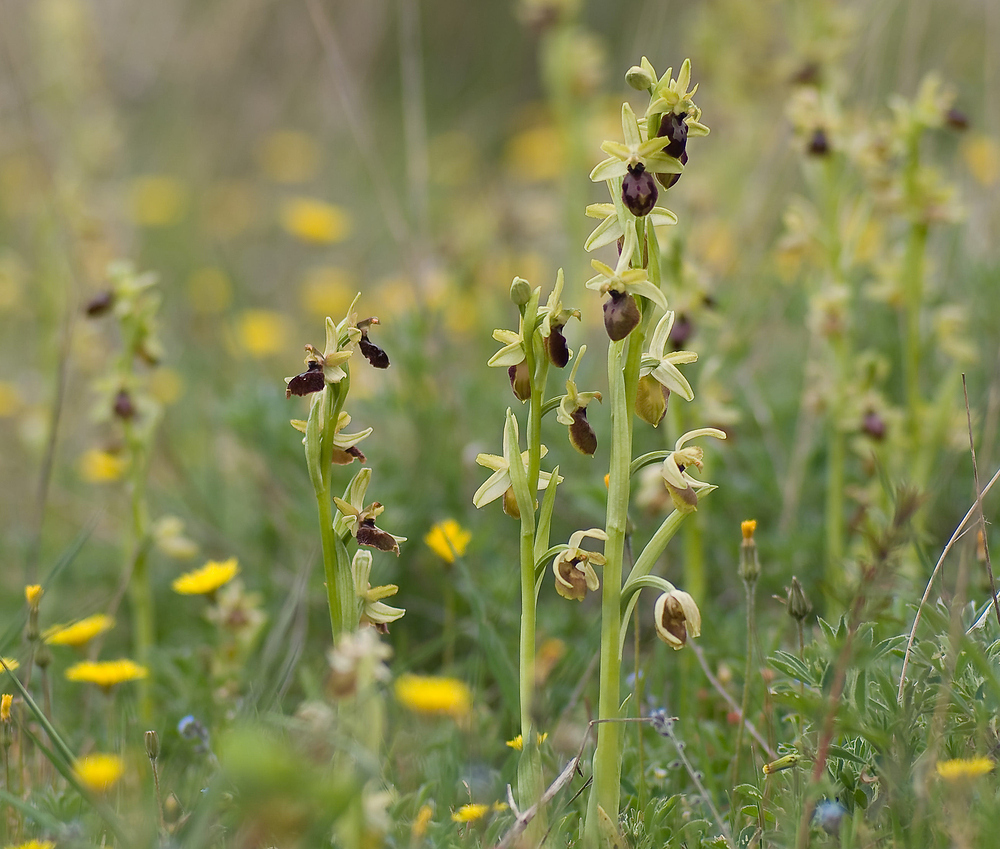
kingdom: Plantae
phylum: Tracheophyta
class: Liliopsida
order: Asparagales
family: Orchidaceae
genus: Ophrys
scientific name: Ophrys arachnitiformis
